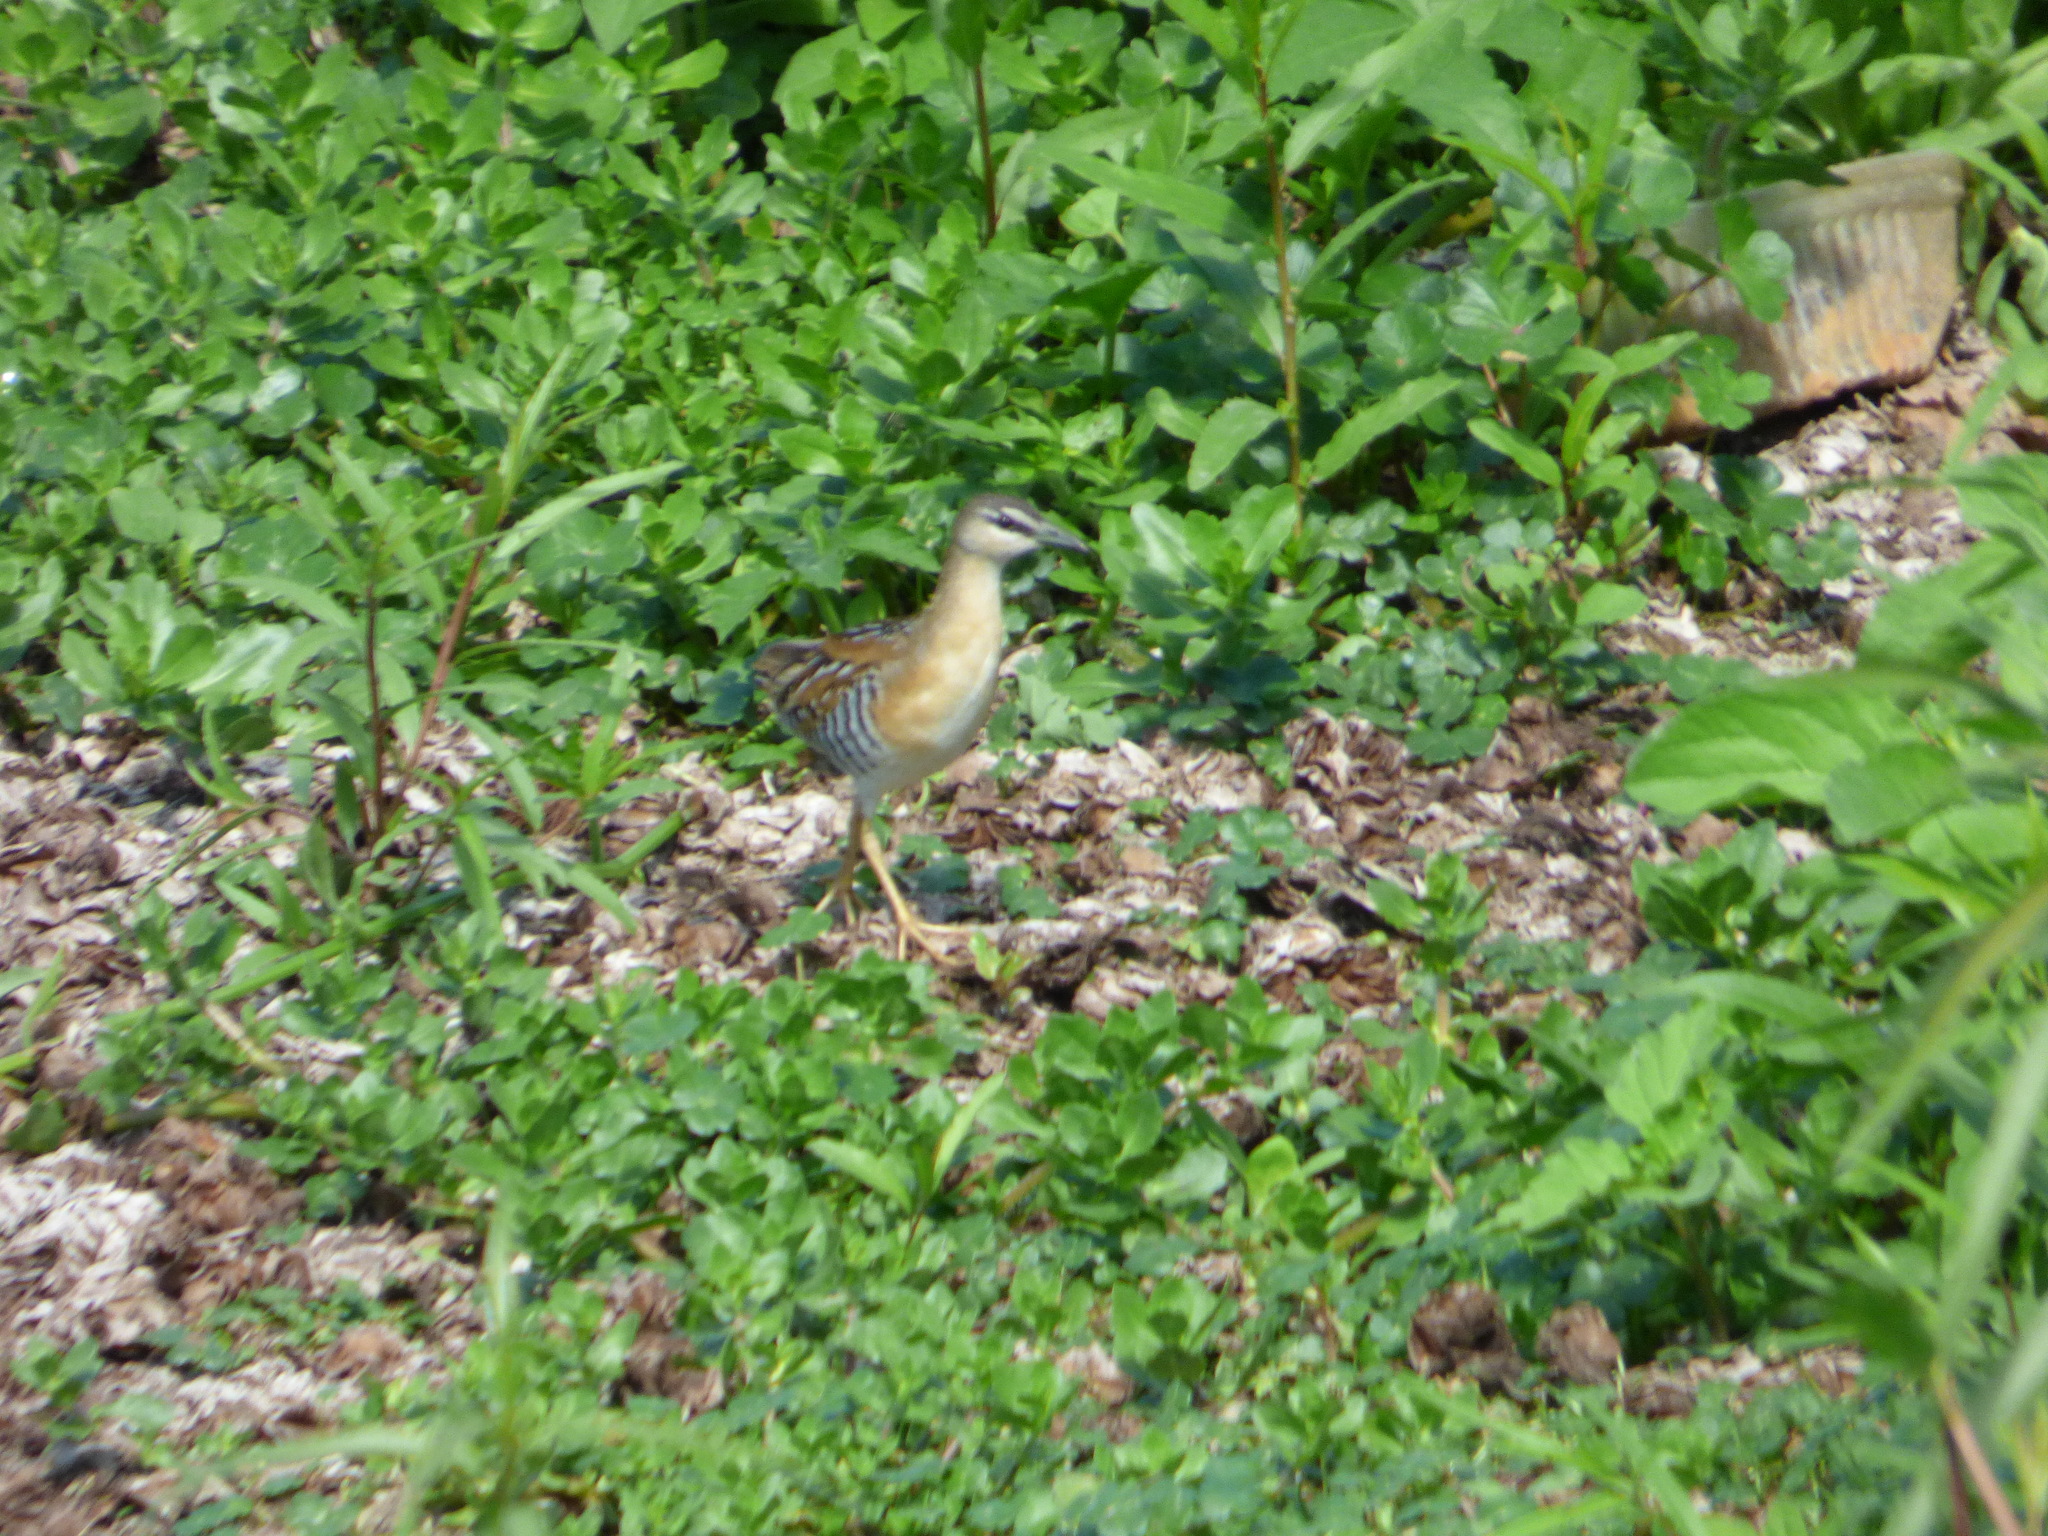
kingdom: Animalia
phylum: Chordata
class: Aves
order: Gruiformes
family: Rallidae
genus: Porzana
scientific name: Porzana flaviventer
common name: Yellow-breasted crake
